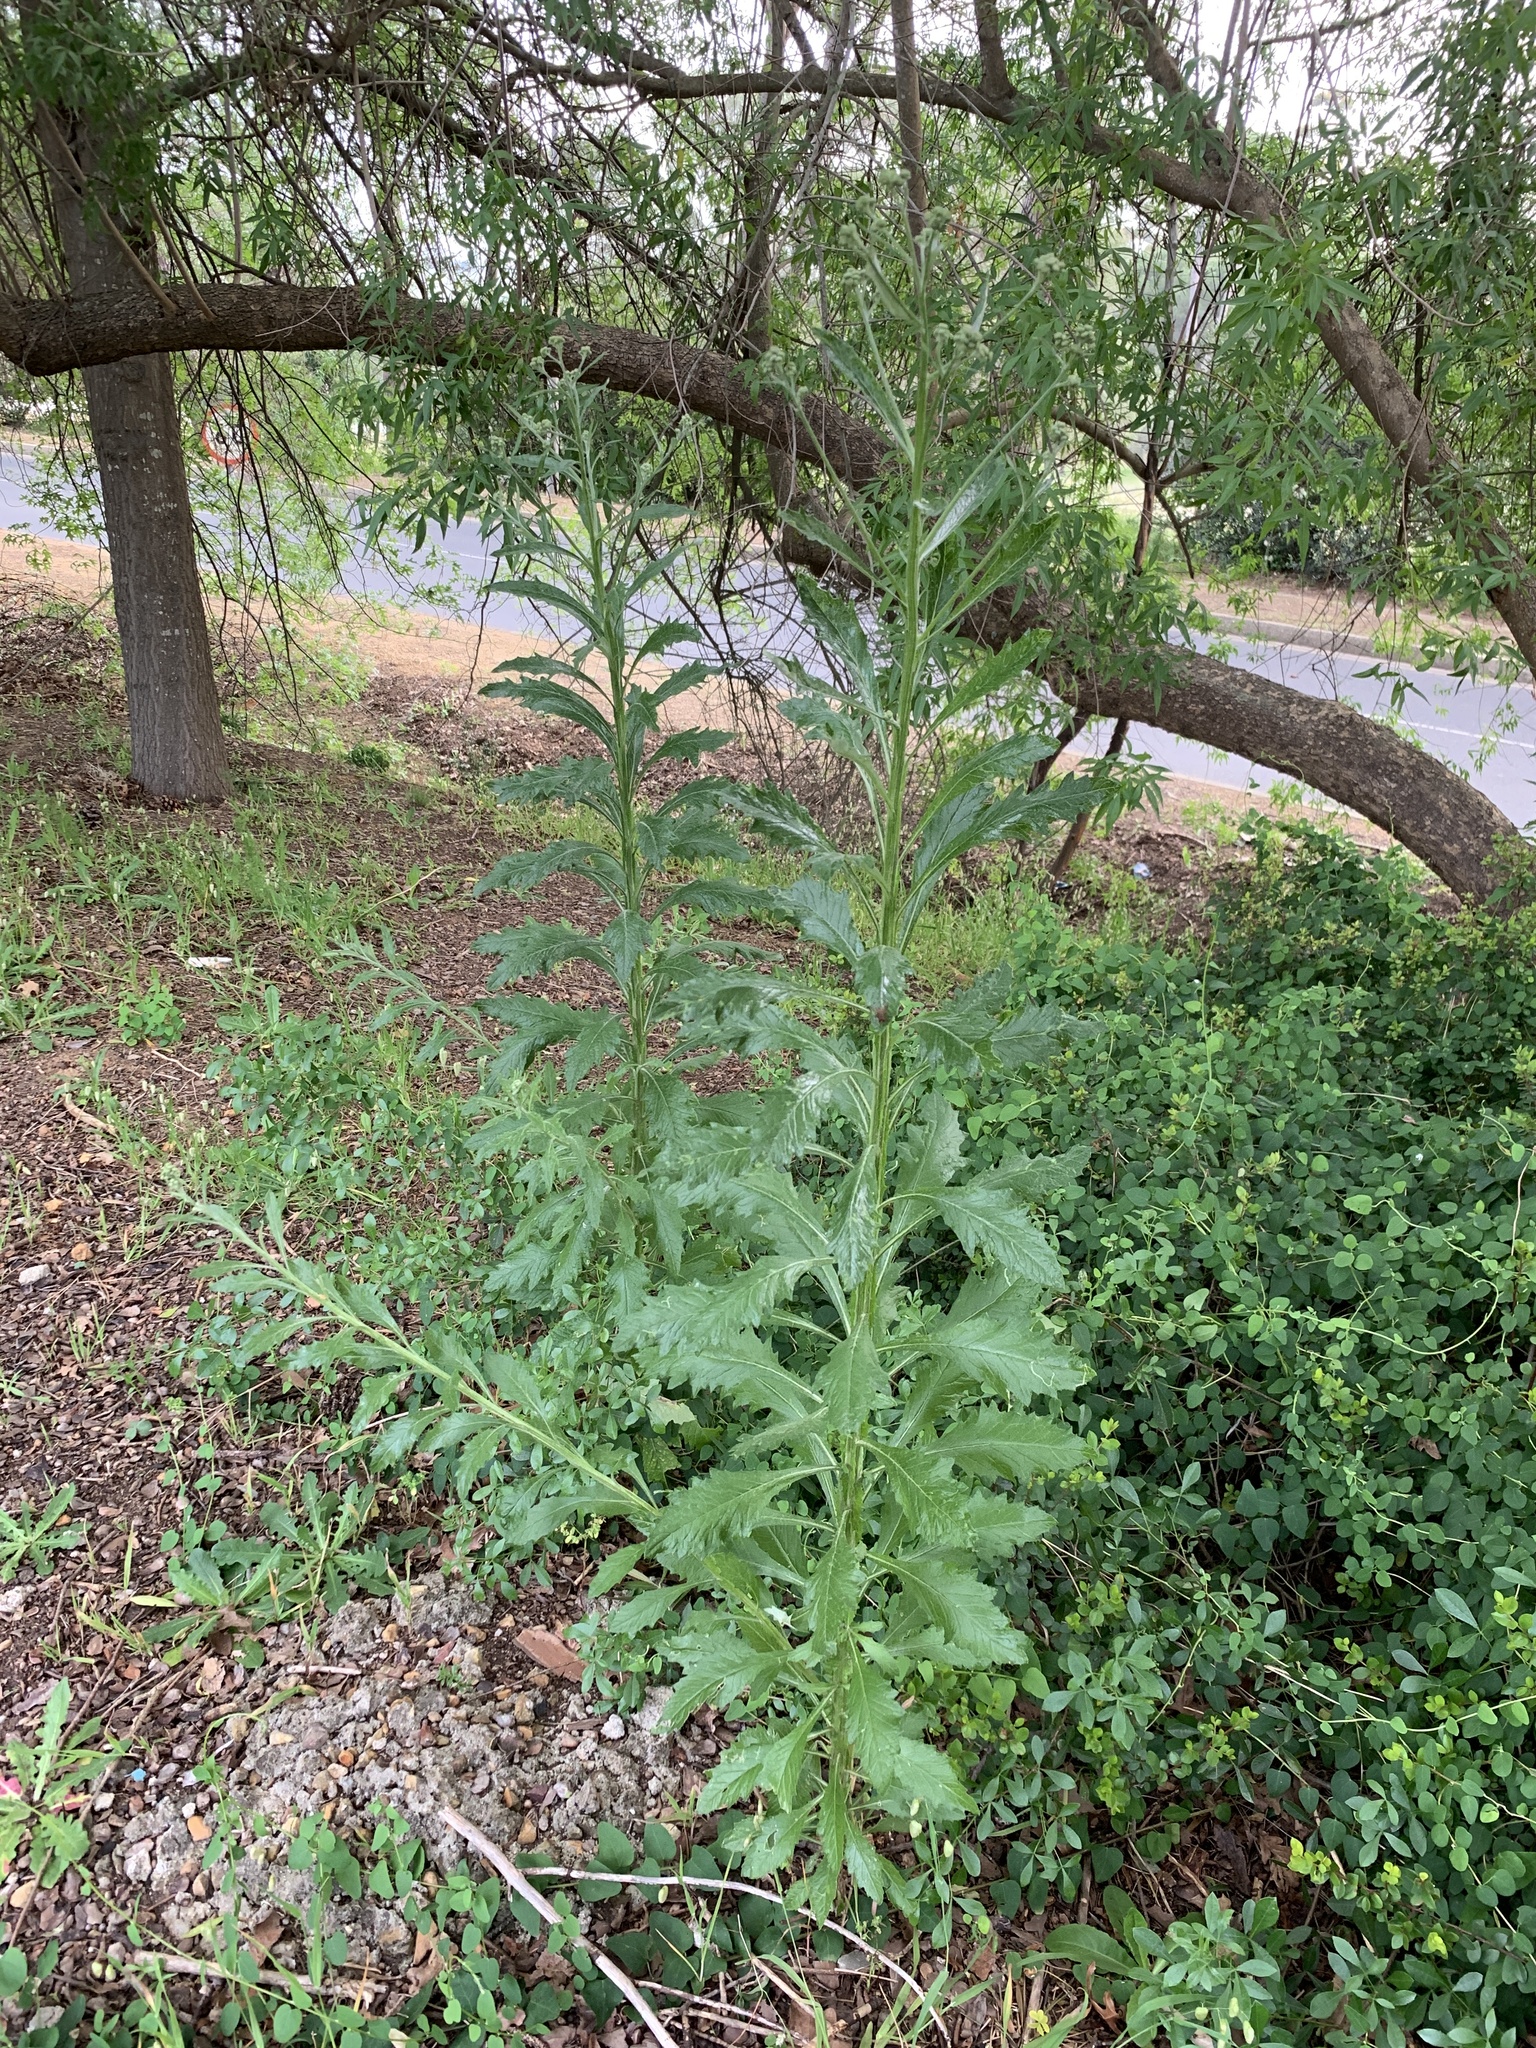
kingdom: Plantae
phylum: Tracheophyta
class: Magnoliopsida
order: Asterales
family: Asteraceae
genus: Senecio
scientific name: Senecio pterophorus
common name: Shoddy ragwort
